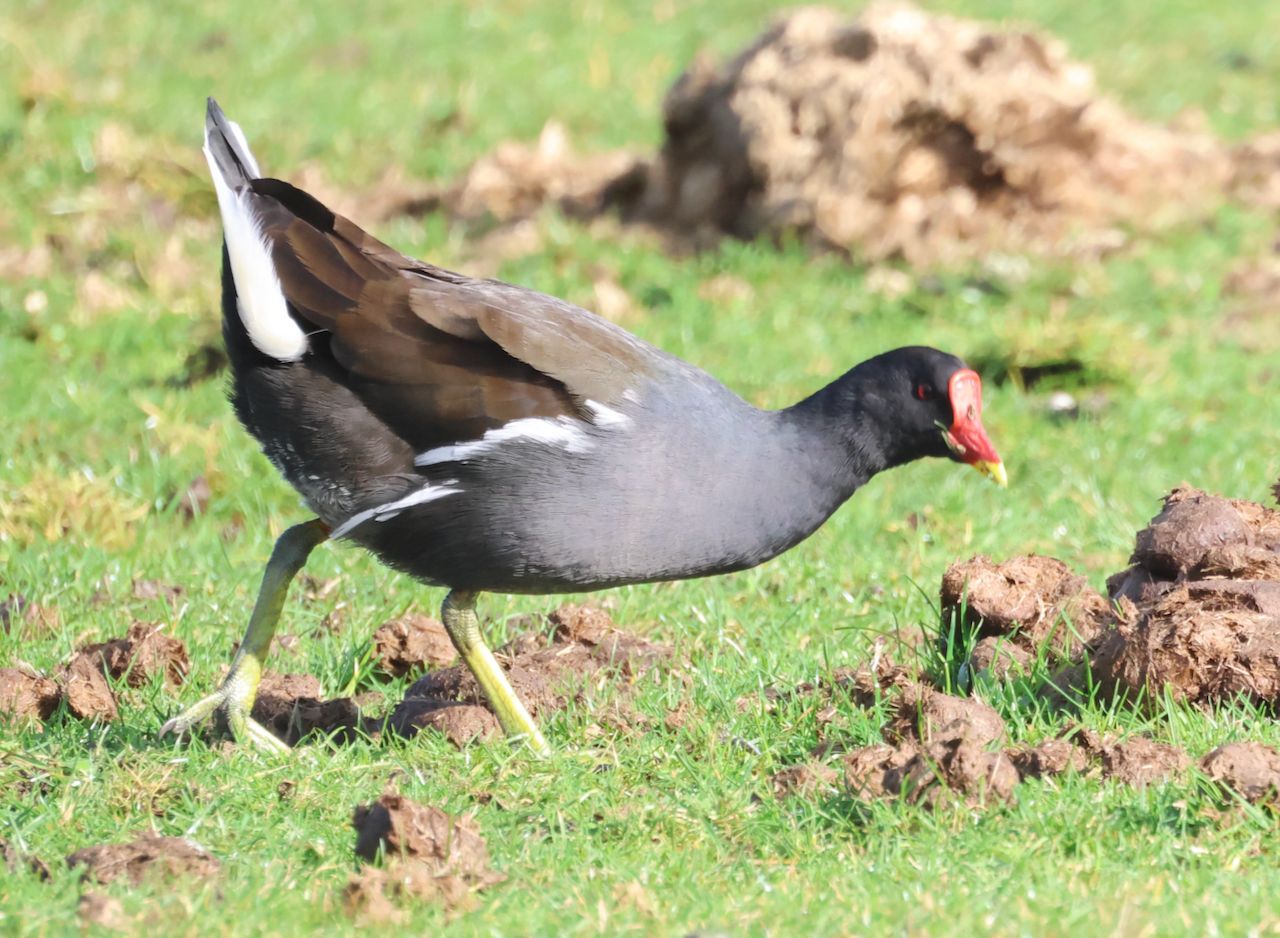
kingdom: Animalia
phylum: Chordata
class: Aves
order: Gruiformes
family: Rallidae
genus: Gallinula
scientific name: Gallinula chloropus
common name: Common moorhen
